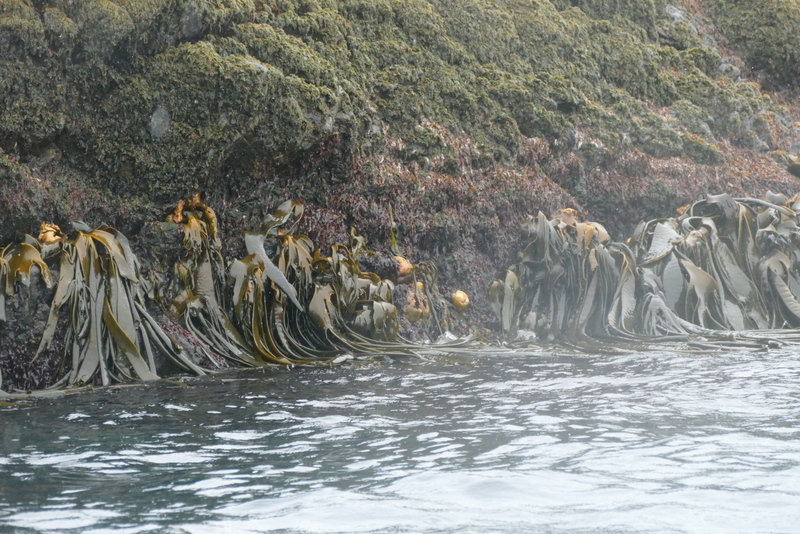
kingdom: Chromista
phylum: Ochrophyta
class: Phaeophyceae
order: Fucales
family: Durvillaeaceae
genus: Durvillaea
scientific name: Durvillaea antarctica
